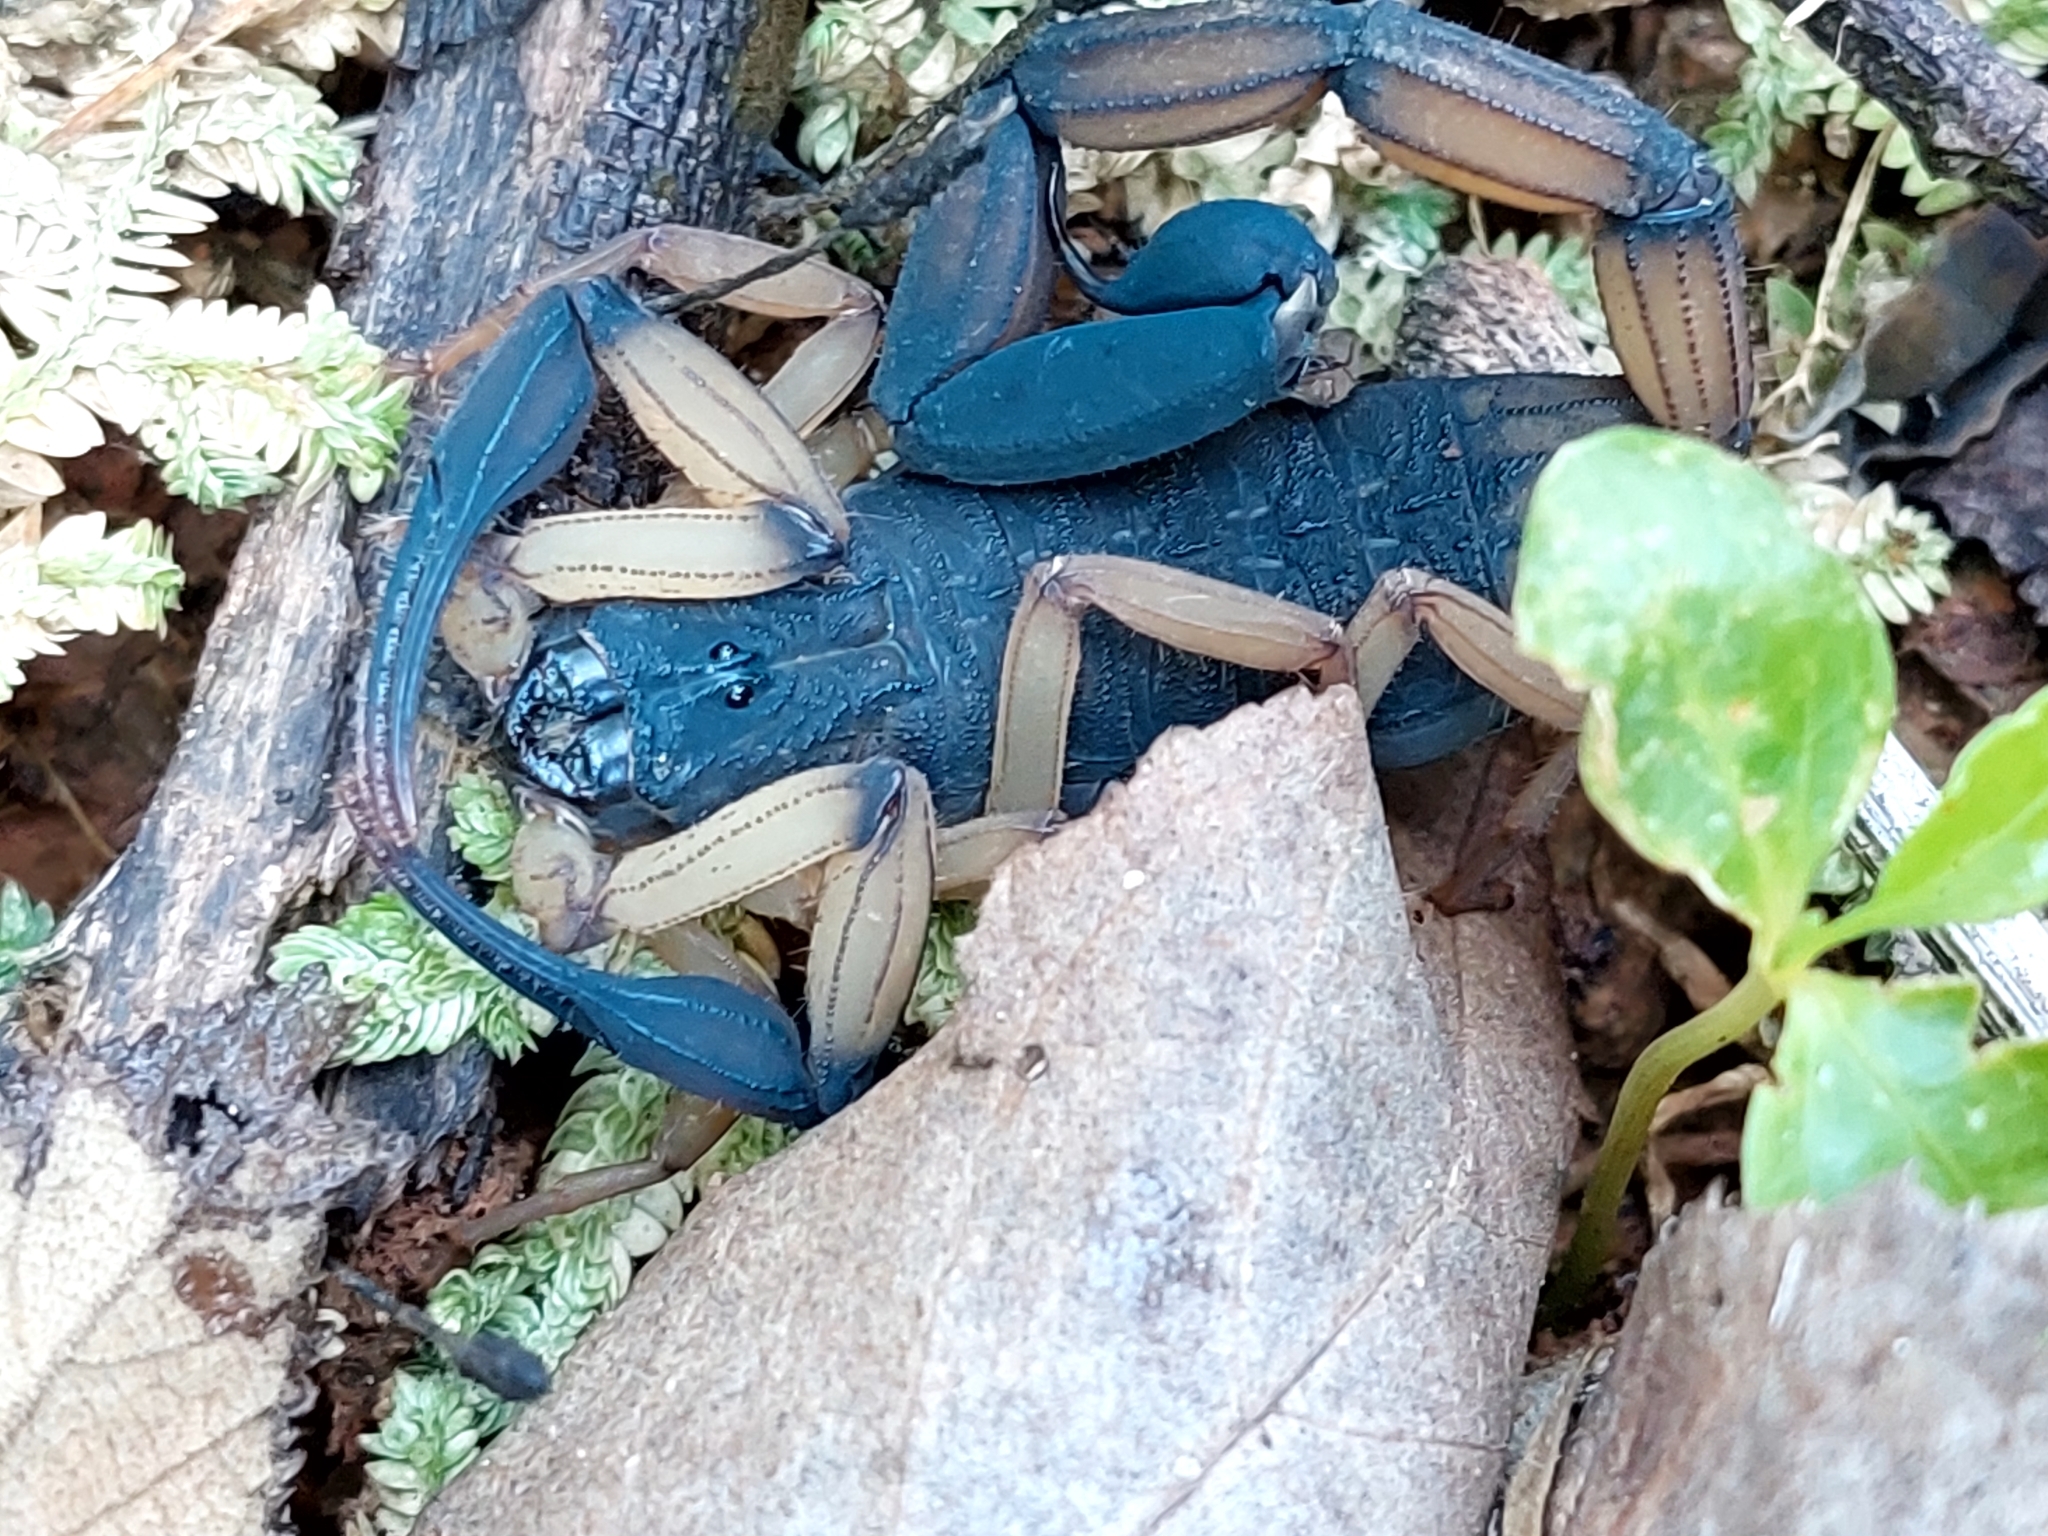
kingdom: Animalia
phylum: Arthropoda
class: Arachnida
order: Scorpiones
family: Buthidae
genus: Centruroides
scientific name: Centruroides bicolor
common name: Scorpions
